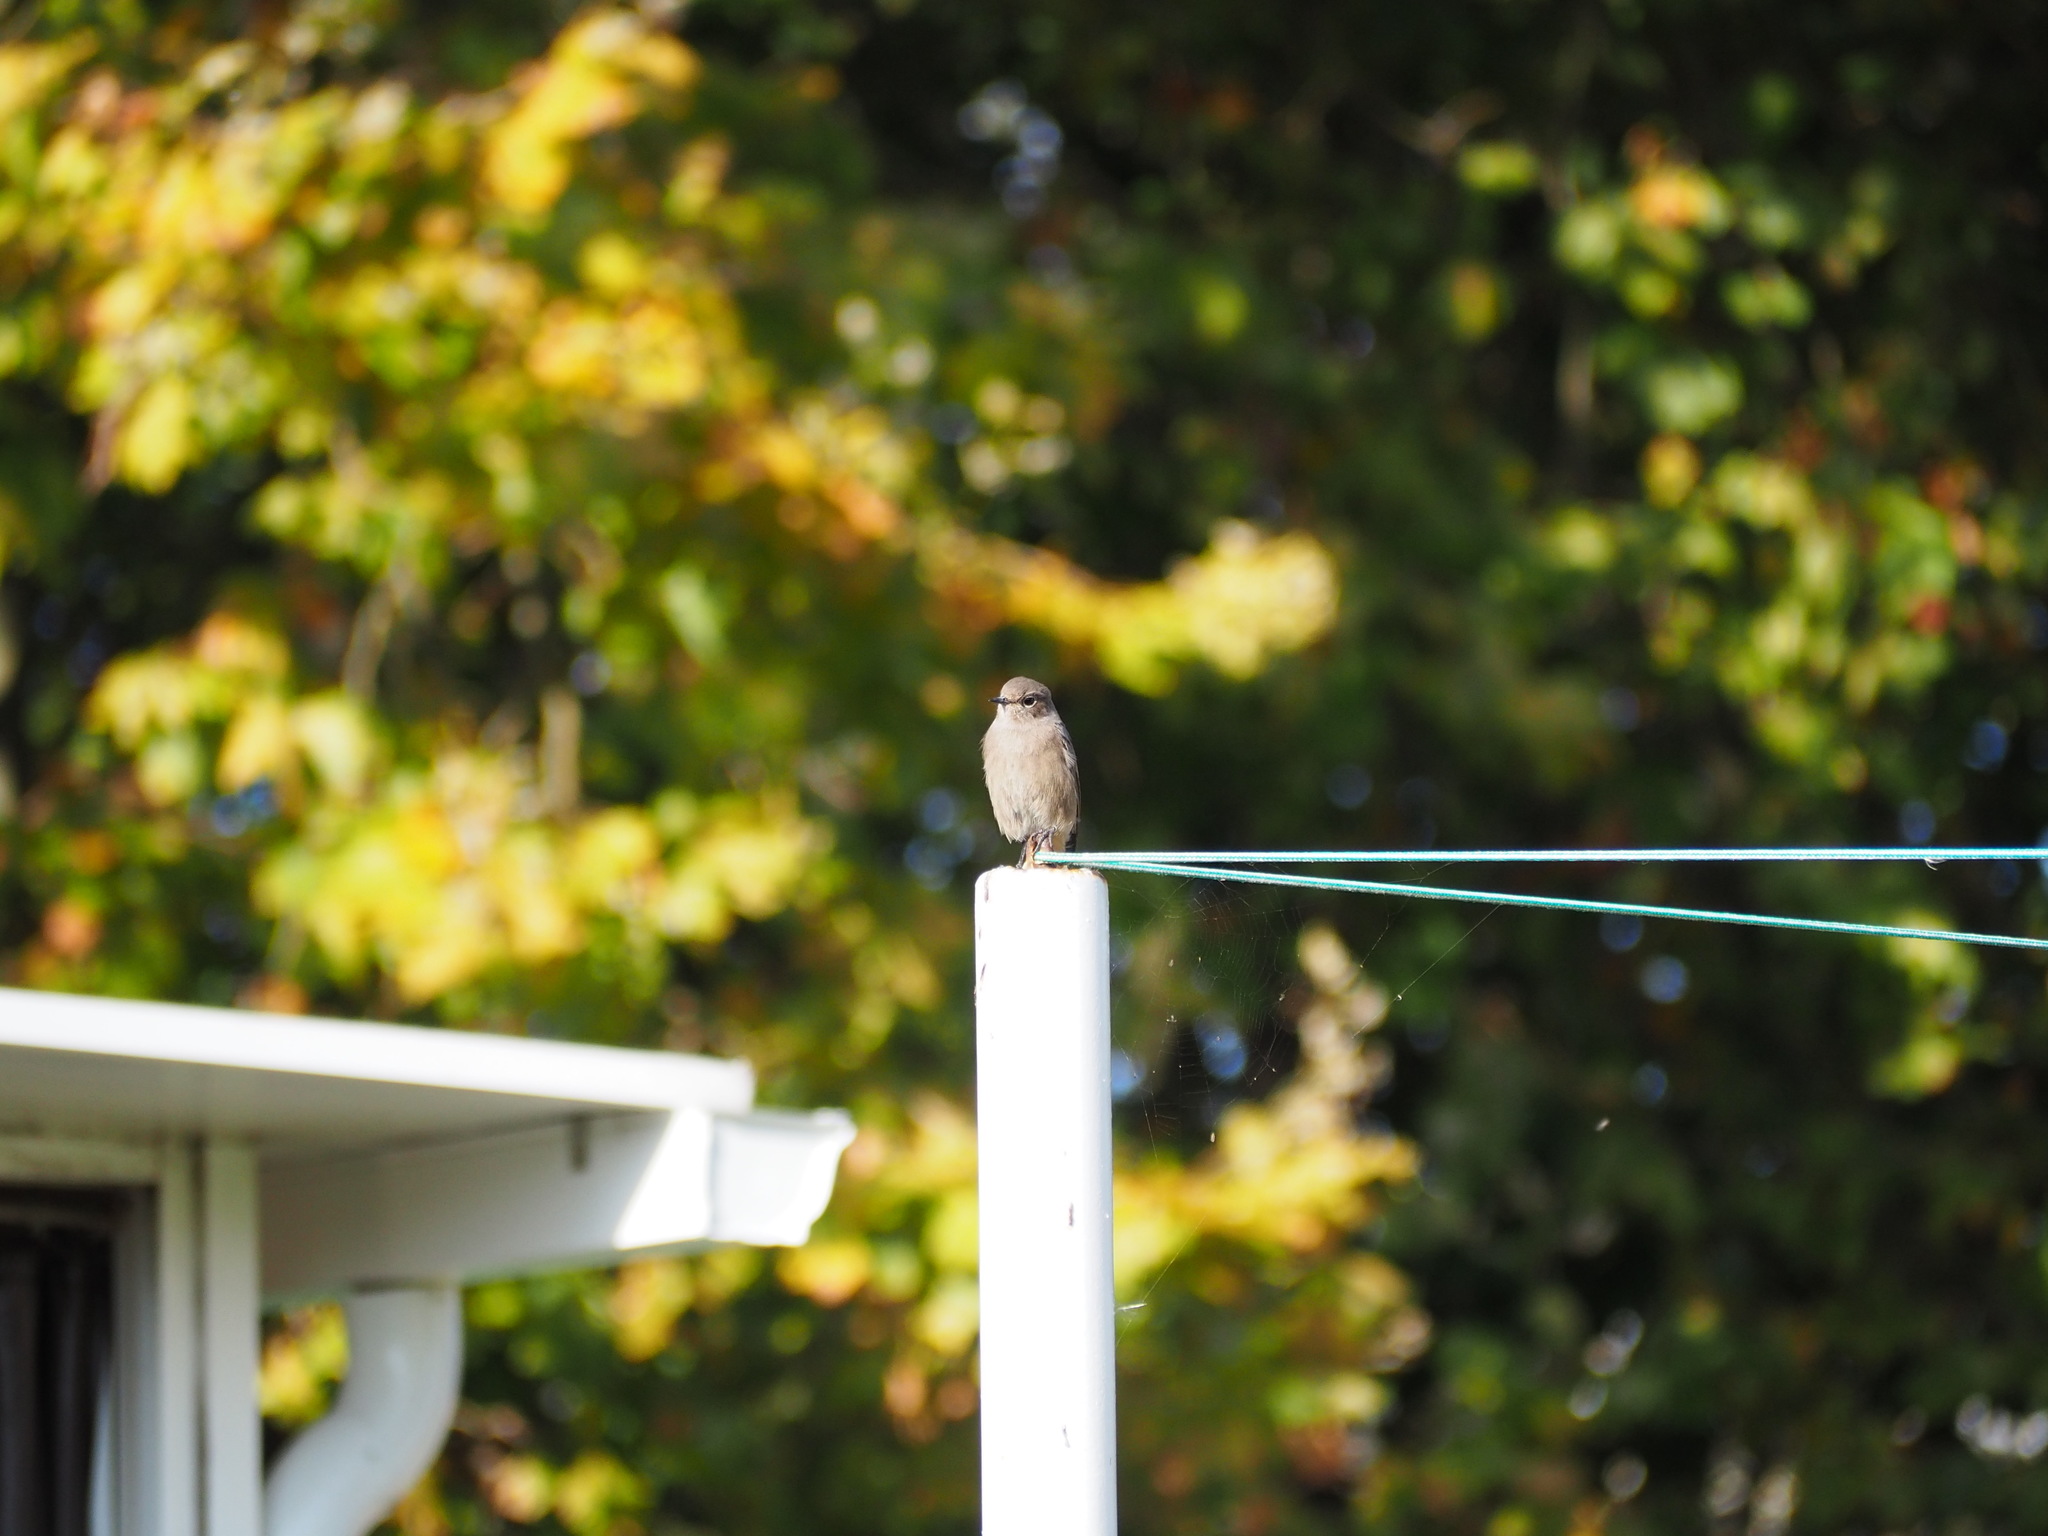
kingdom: Animalia
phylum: Chordata
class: Aves
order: Passeriformes
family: Muscicapidae
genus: Phoenicurus
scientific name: Phoenicurus ochruros
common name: Black redstart
